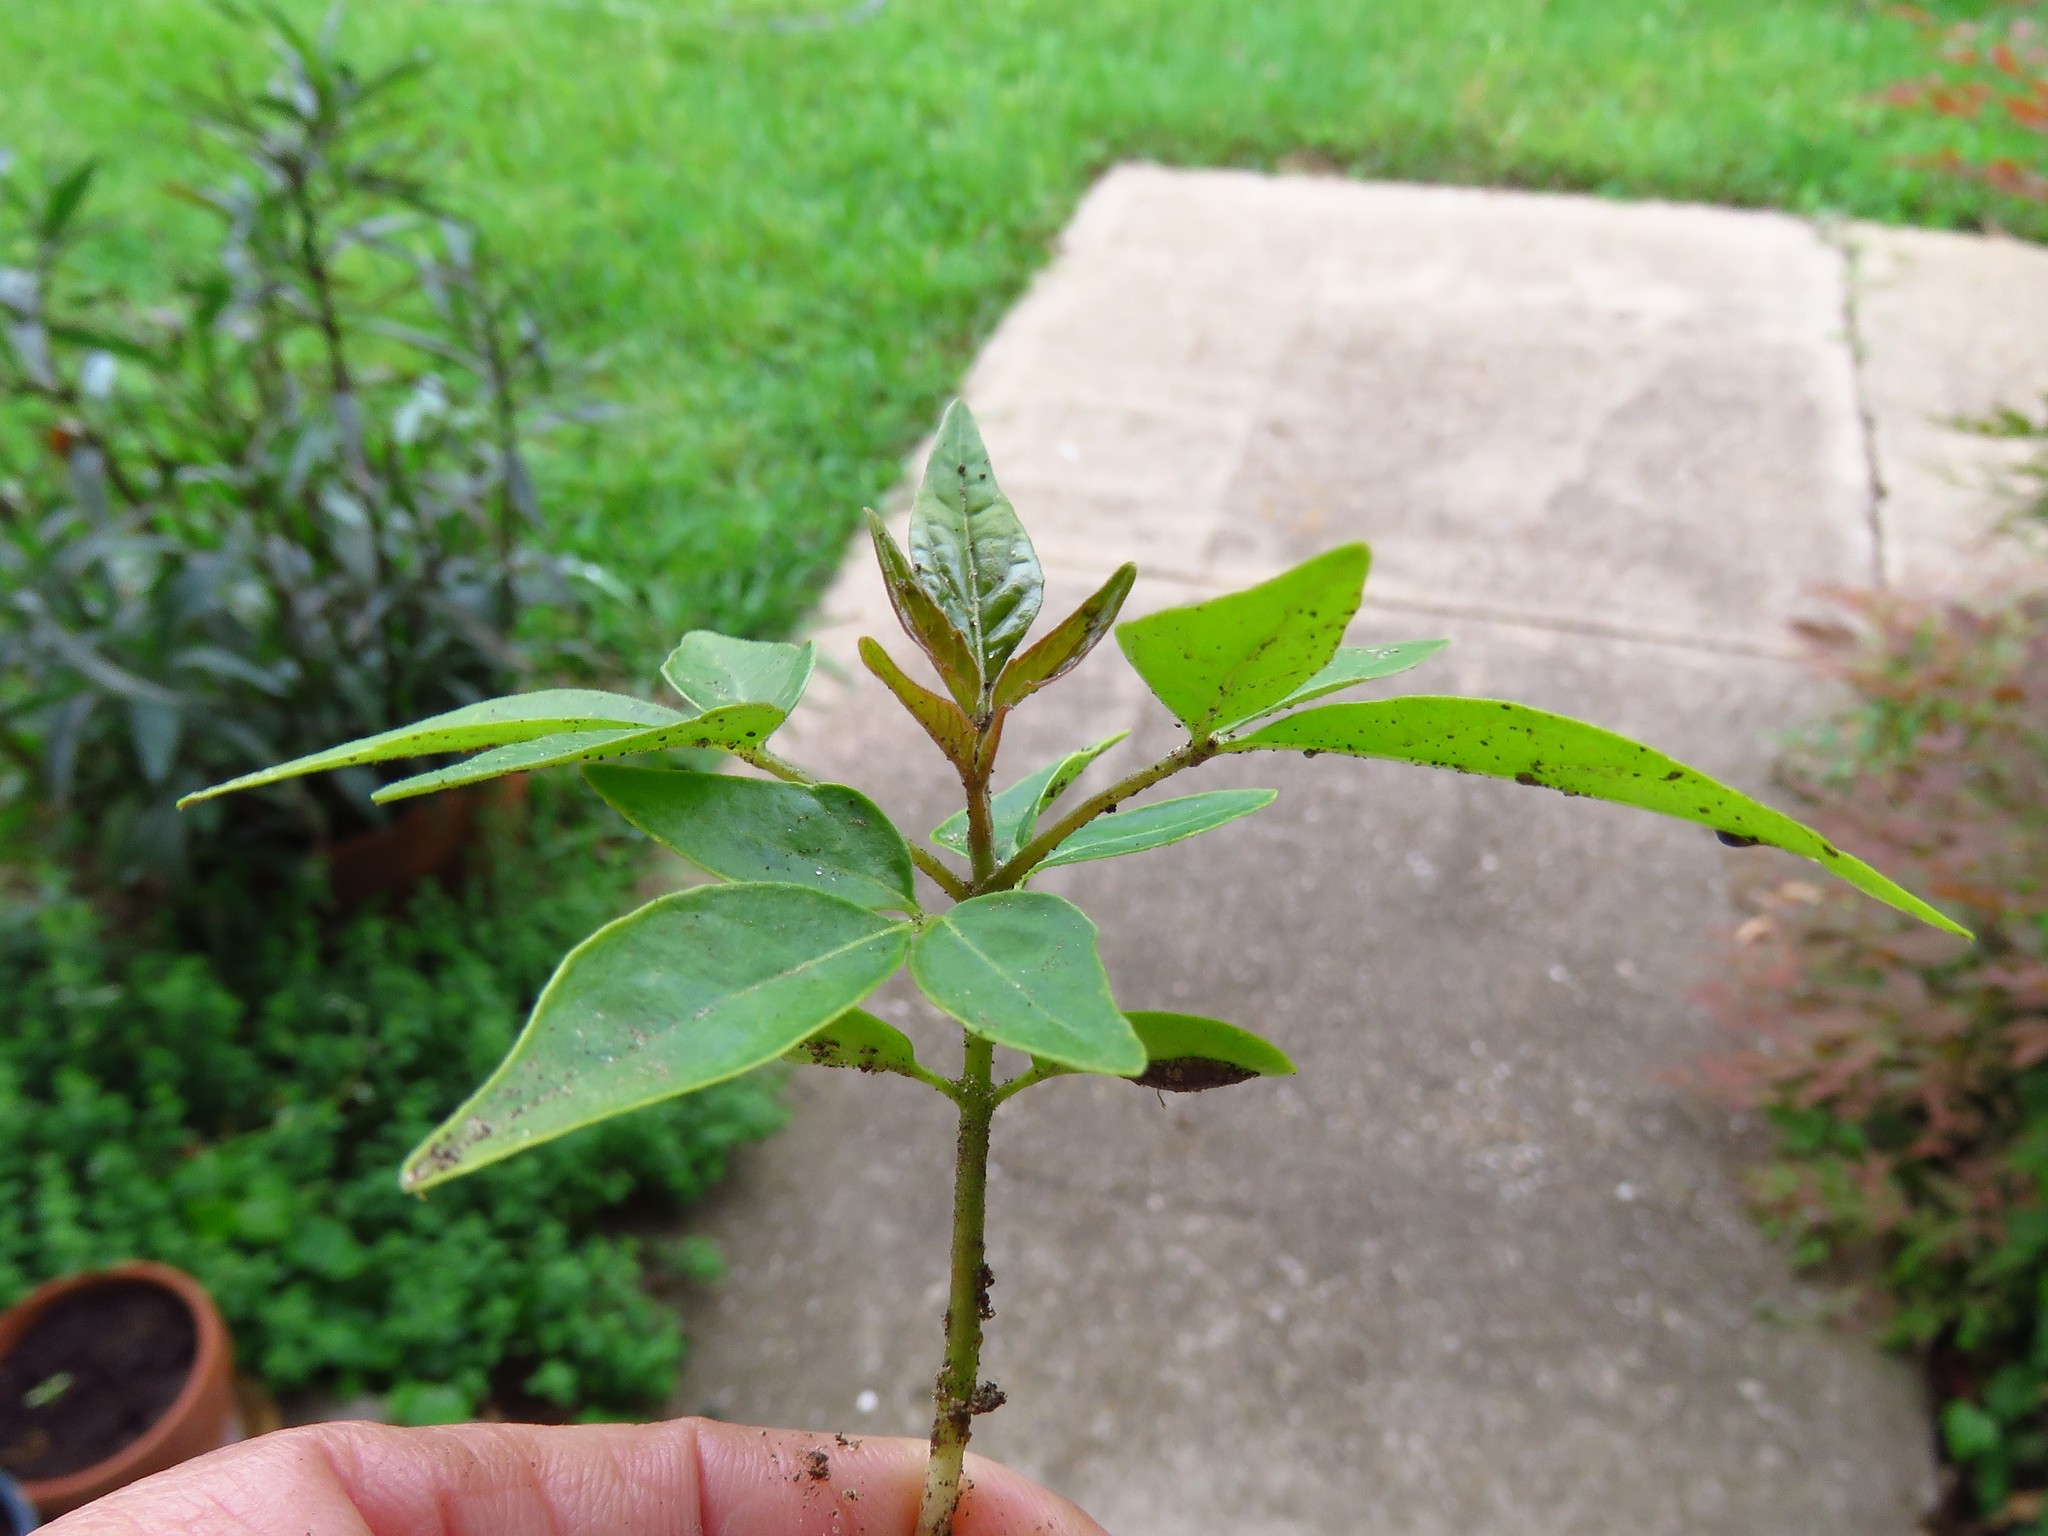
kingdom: Plantae
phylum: Tracheophyta
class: Magnoliopsida
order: Sapindales
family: Simaroubaceae
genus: Ailanthus
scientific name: Ailanthus altissima
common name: Tree-of-heaven
